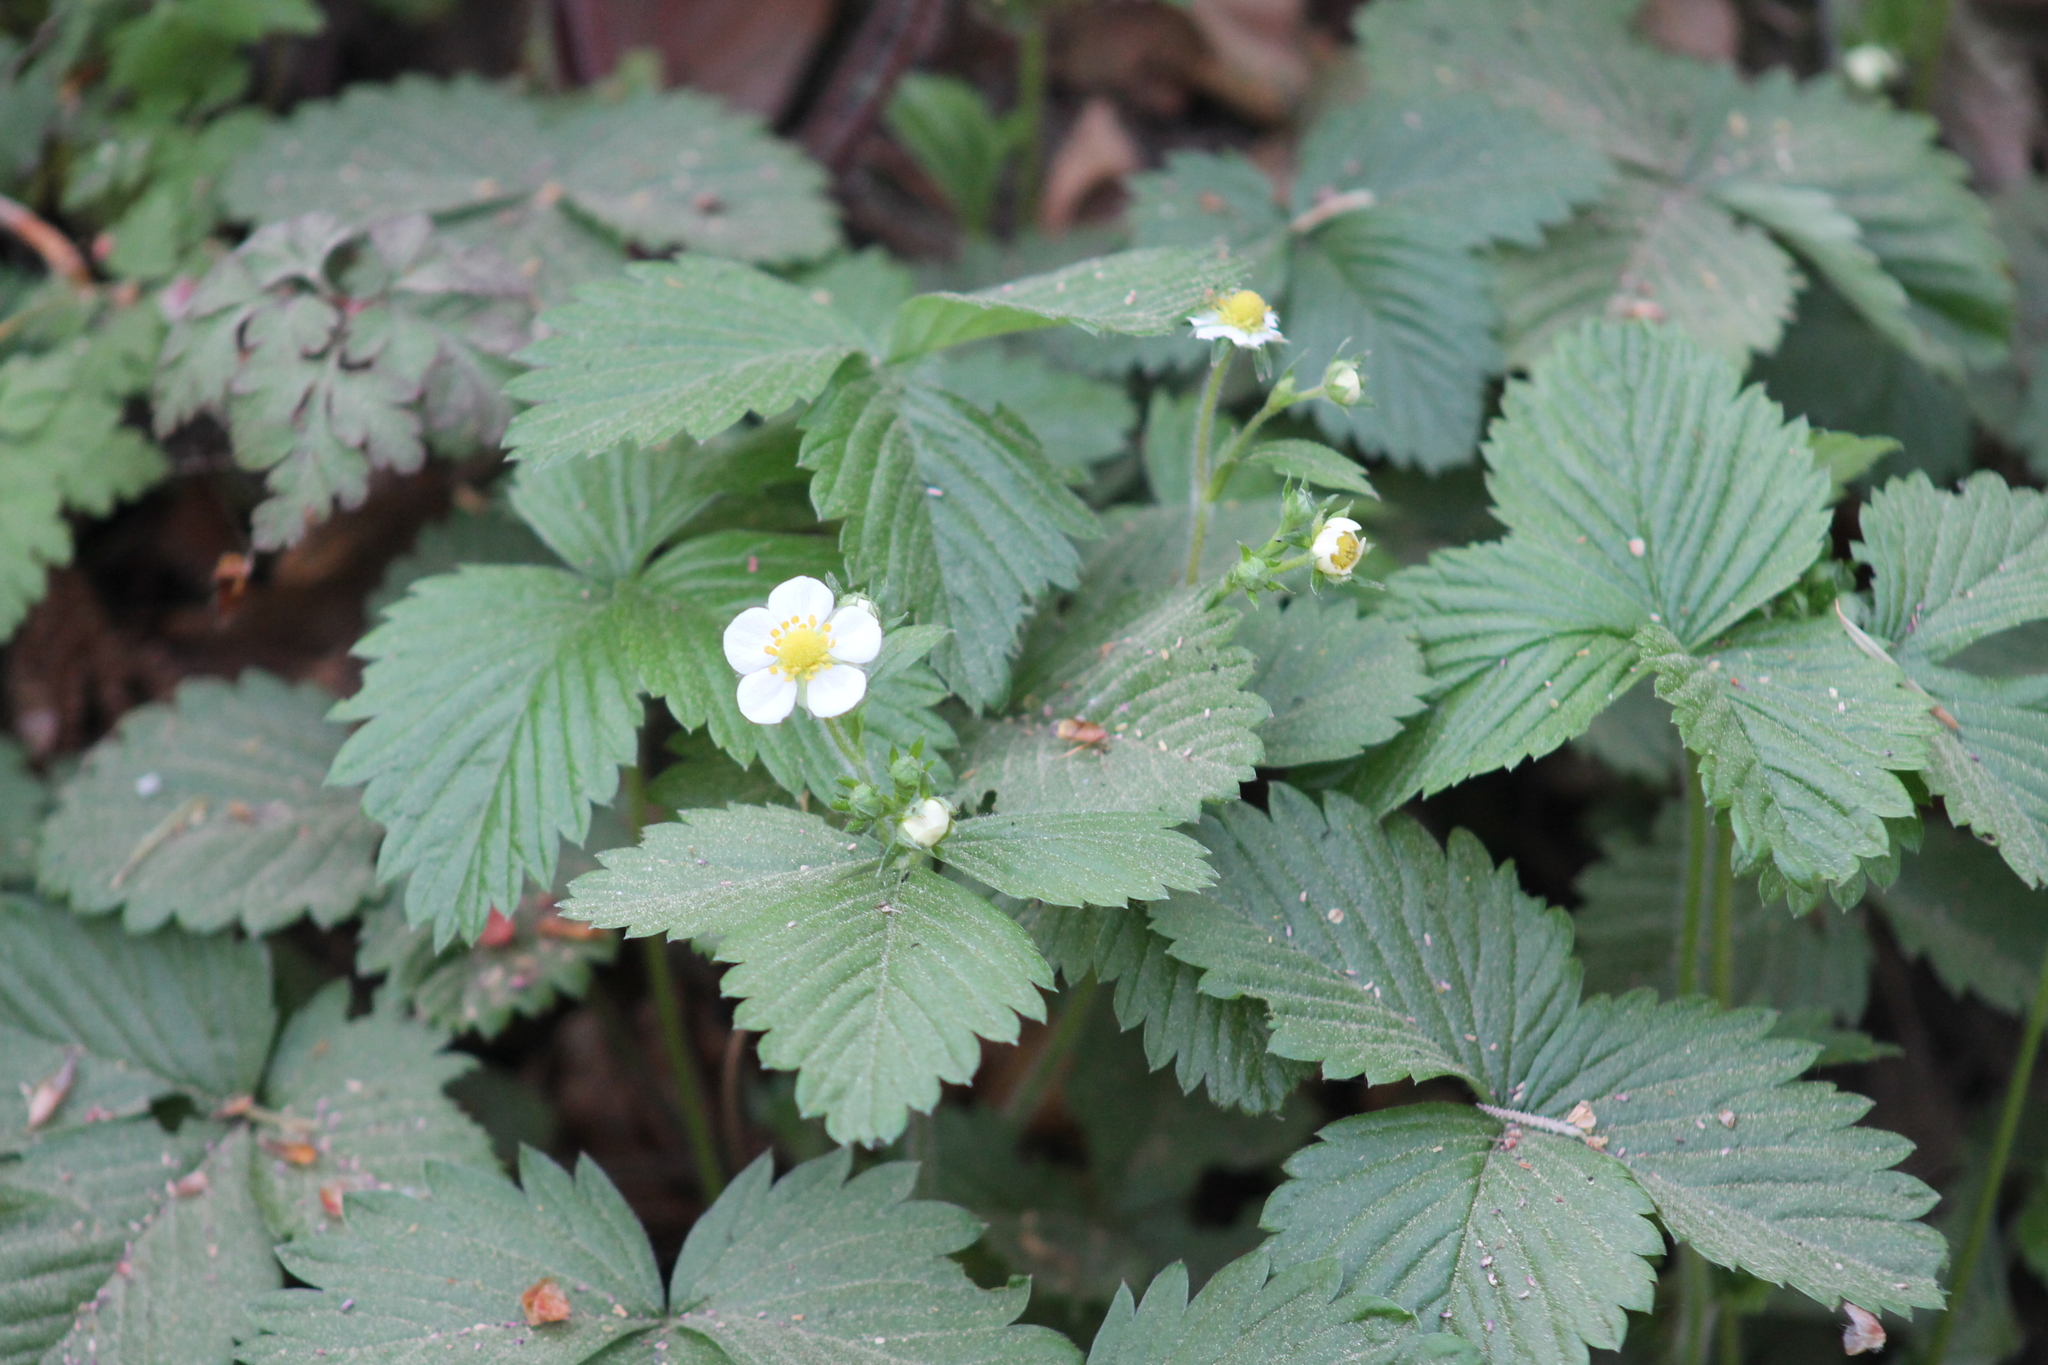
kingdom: Plantae
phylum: Tracheophyta
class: Magnoliopsida
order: Rosales
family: Rosaceae
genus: Fragaria
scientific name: Fragaria vesca
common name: Wild strawberry
